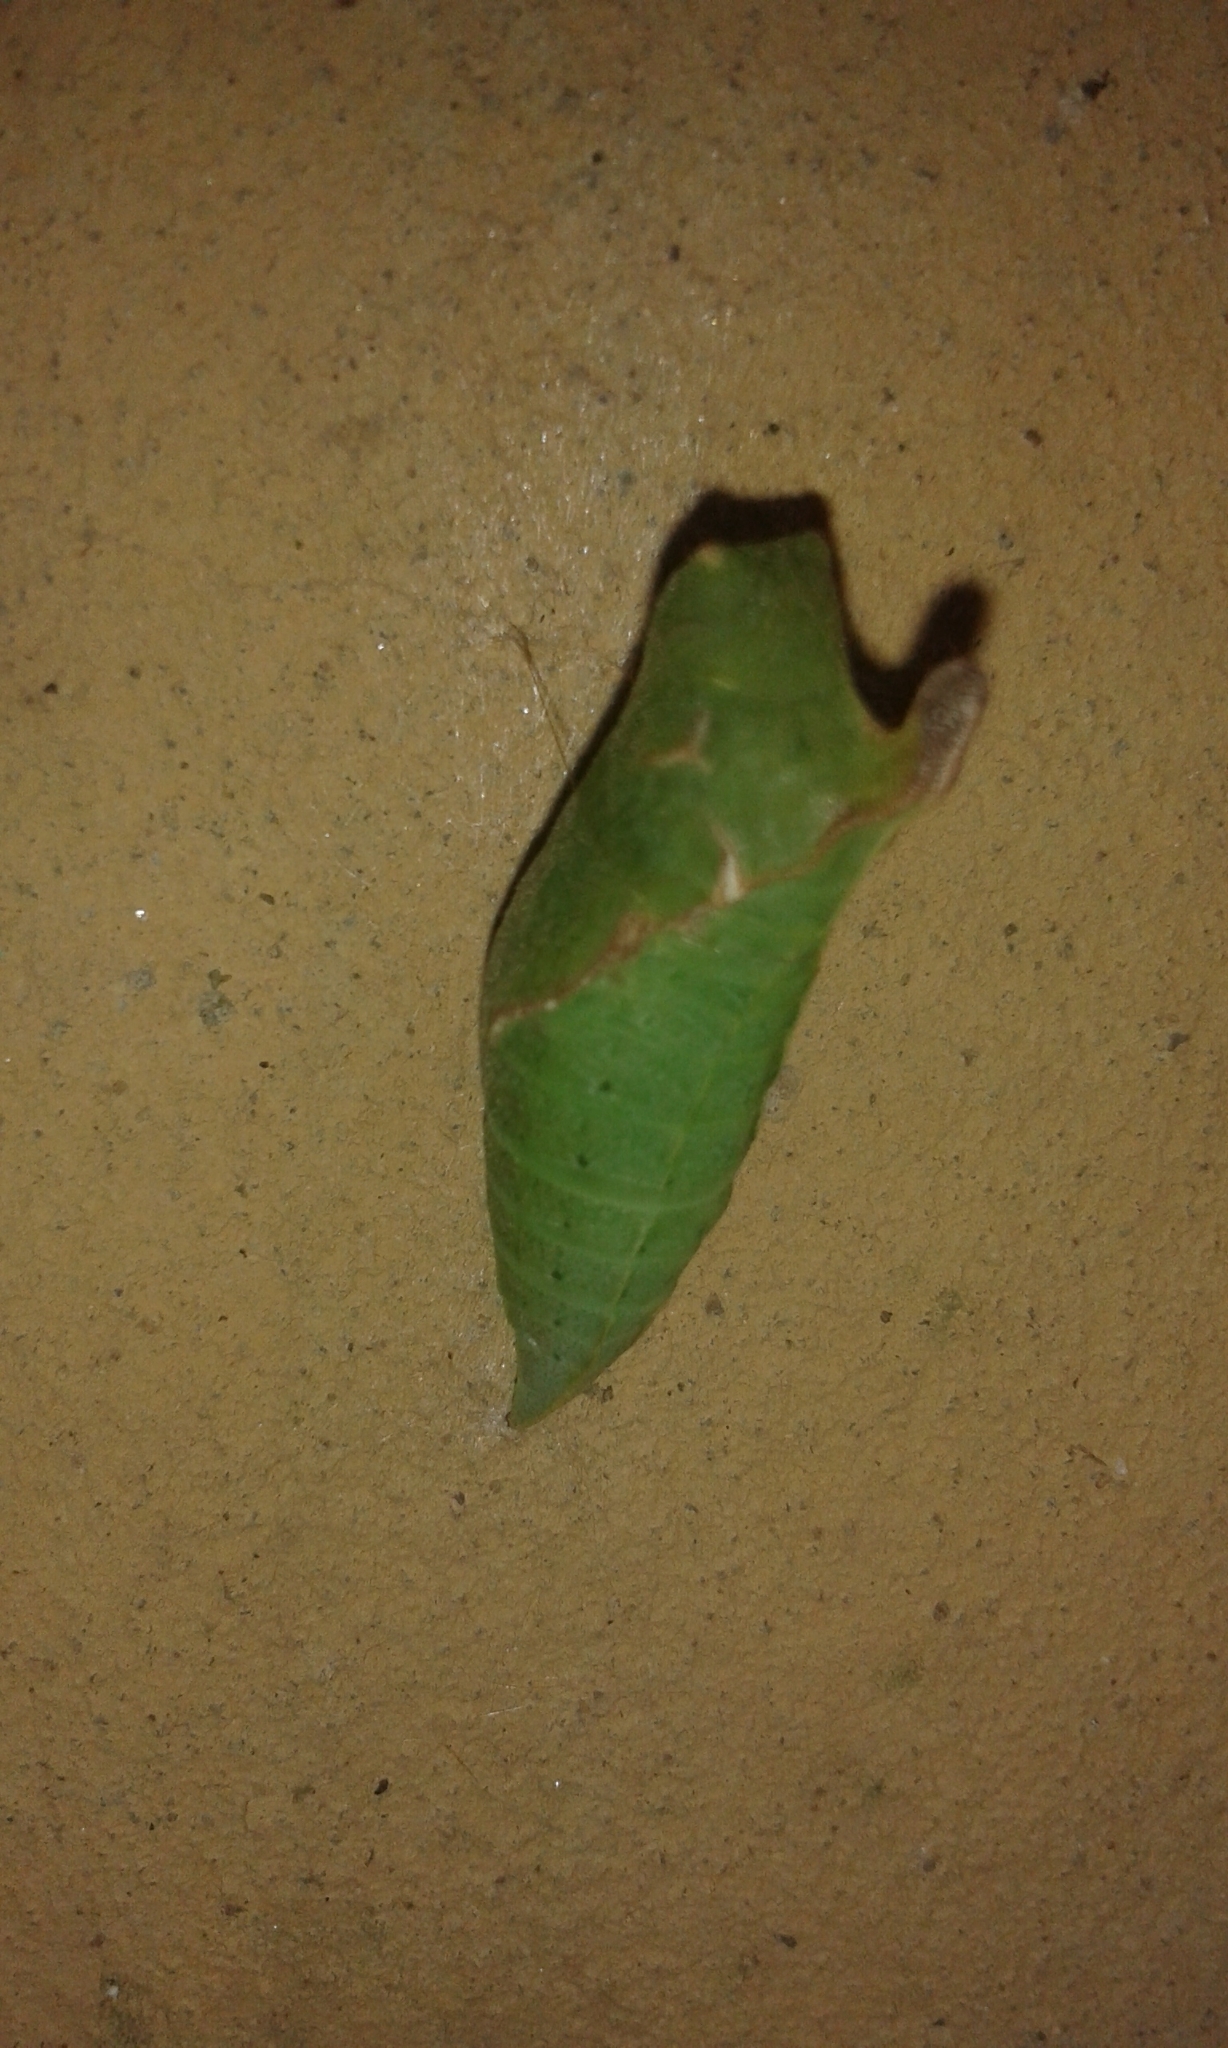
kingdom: Animalia
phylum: Arthropoda
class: Insecta
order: Lepidoptera
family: Papilionidae
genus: Graphium
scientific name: Graphium agamemnon
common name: Tailed jay
